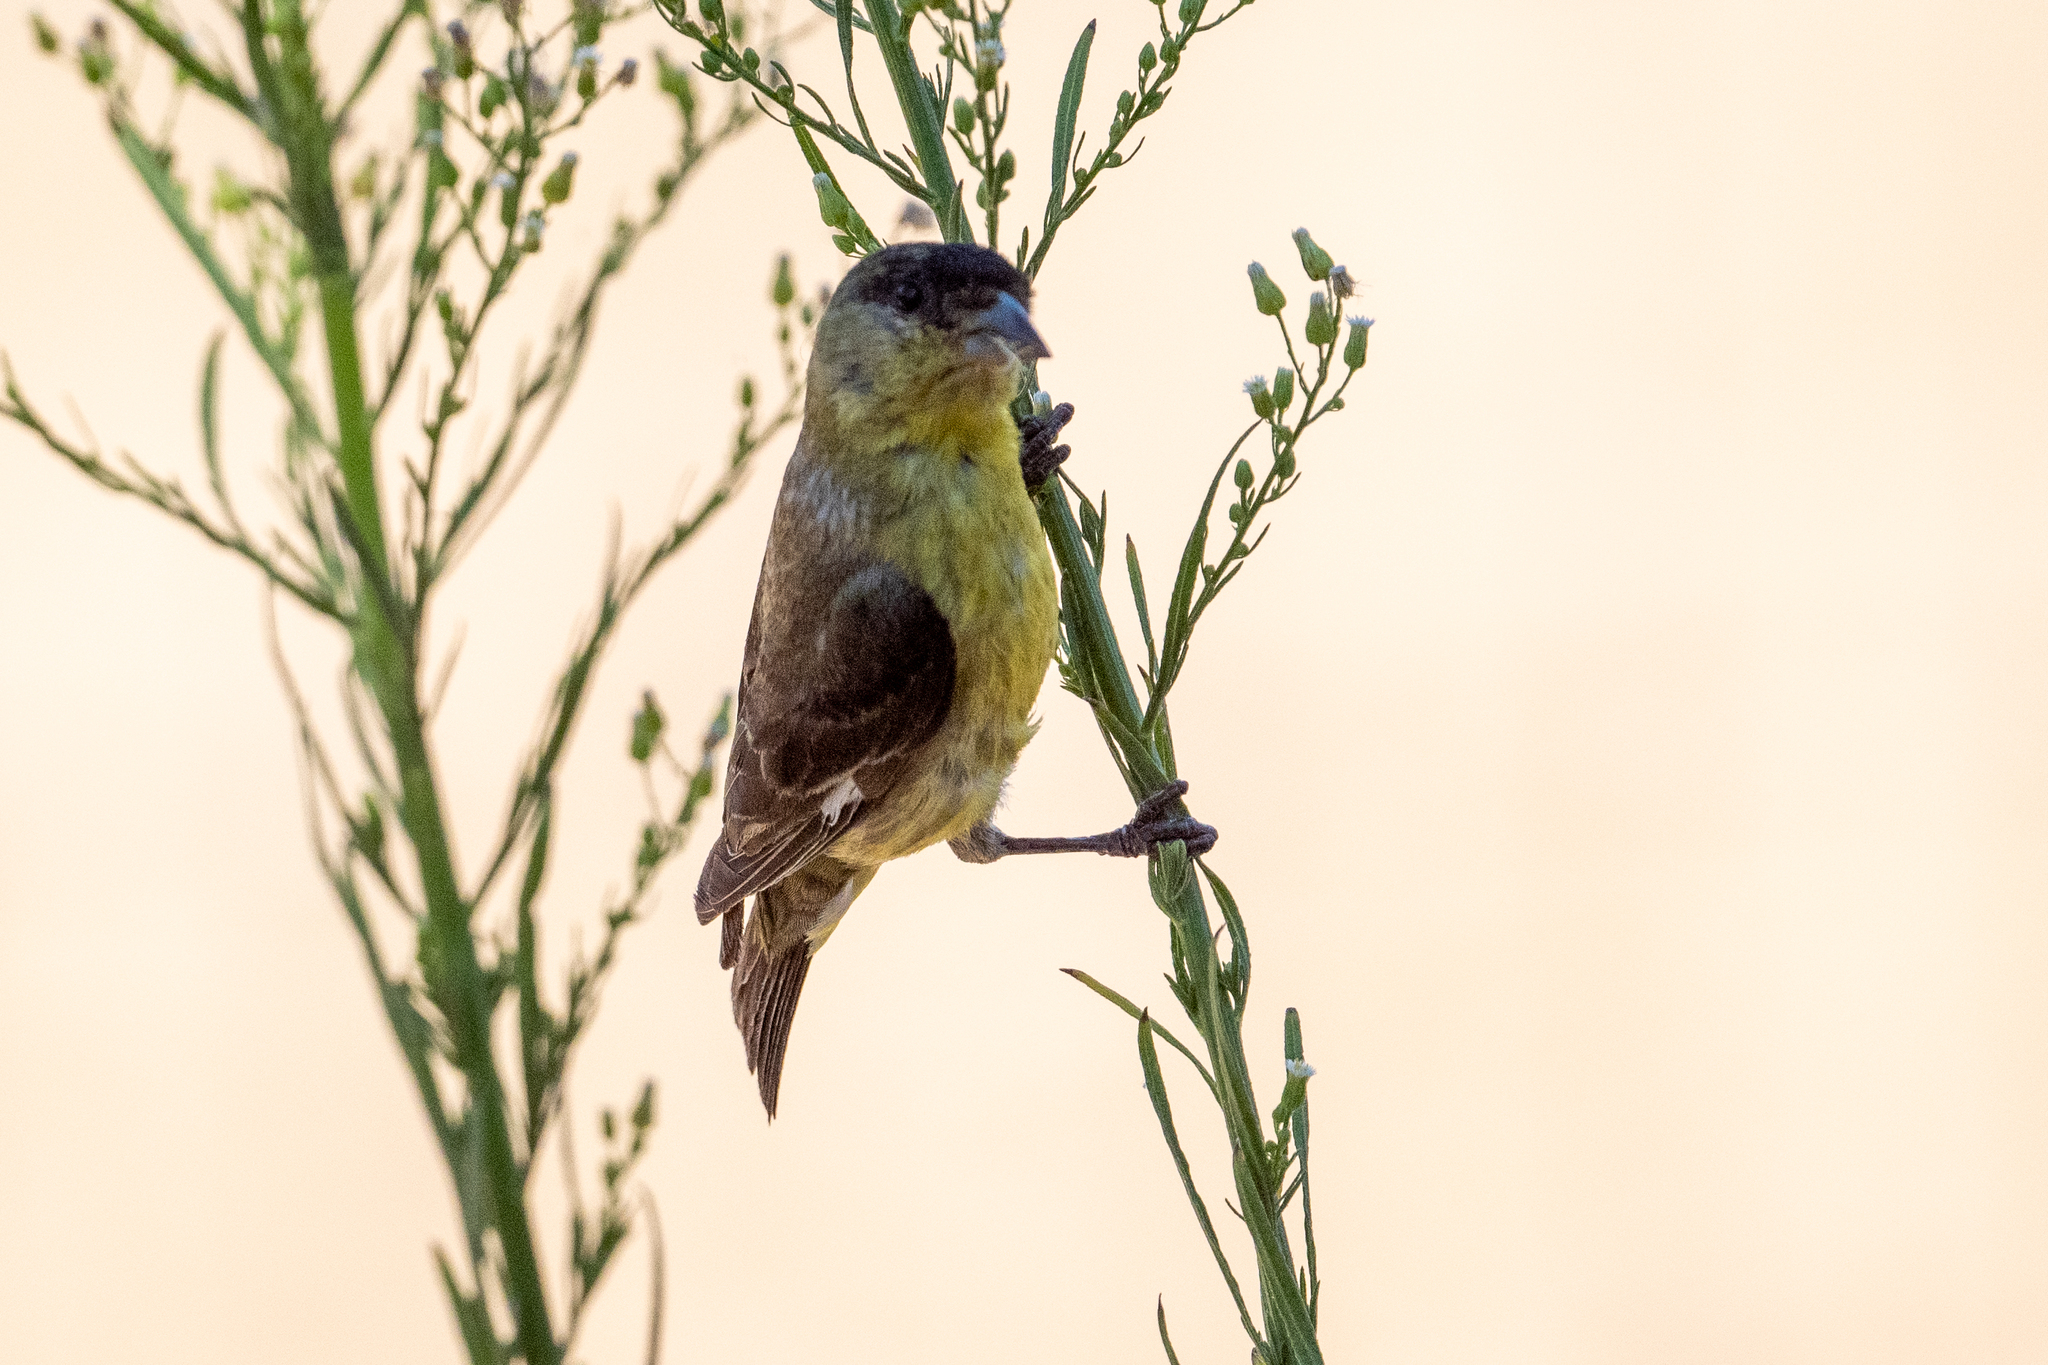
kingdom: Animalia
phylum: Chordata
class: Aves
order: Passeriformes
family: Fringillidae
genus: Spinus
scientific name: Spinus psaltria
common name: Lesser goldfinch
